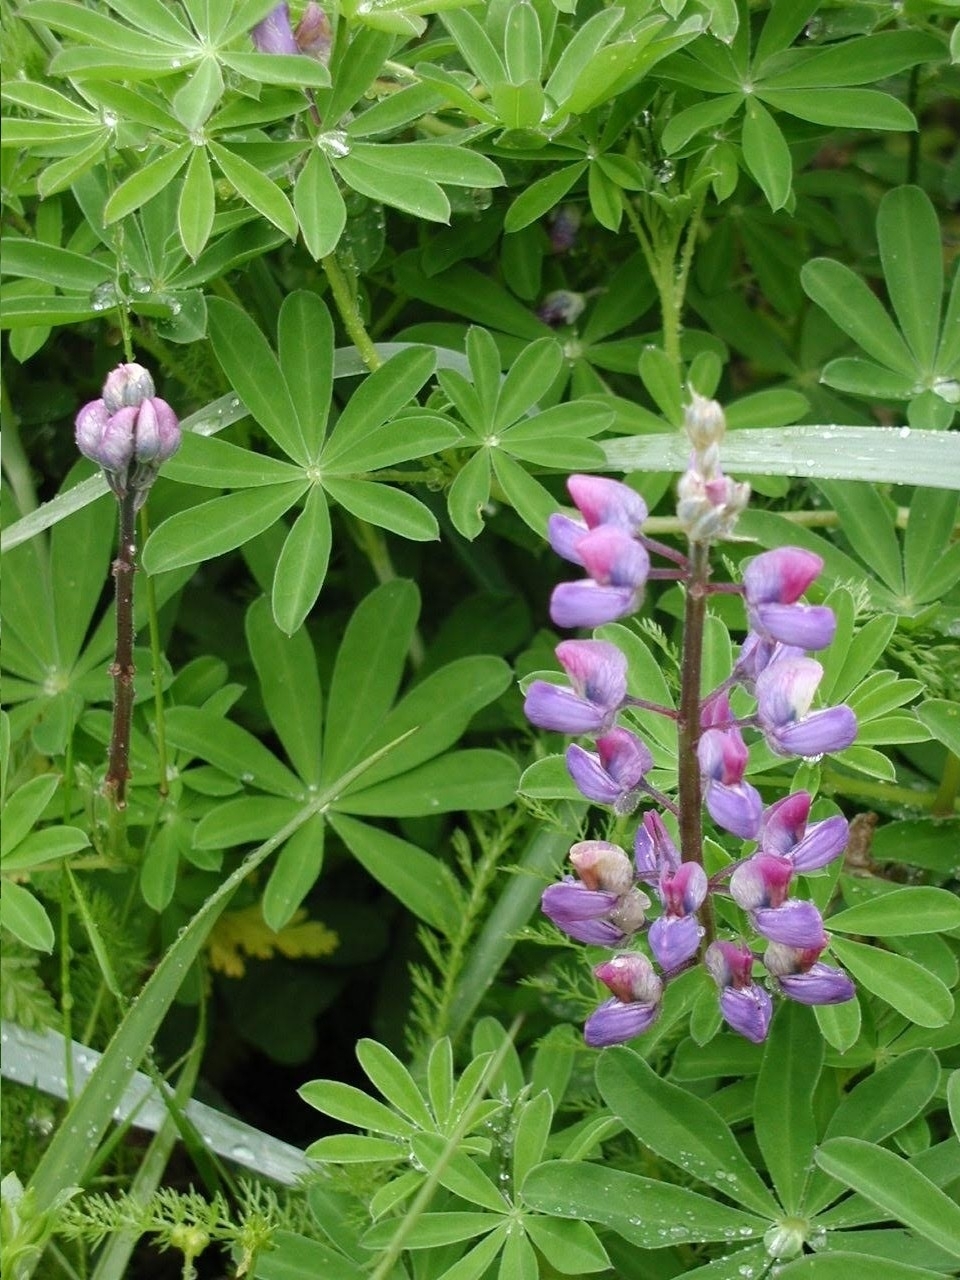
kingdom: Plantae
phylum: Tracheophyta
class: Magnoliopsida
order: Fabales
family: Fabaceae
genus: Lupinus
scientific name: Lupinus nootkatensis
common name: Nootka lupine
